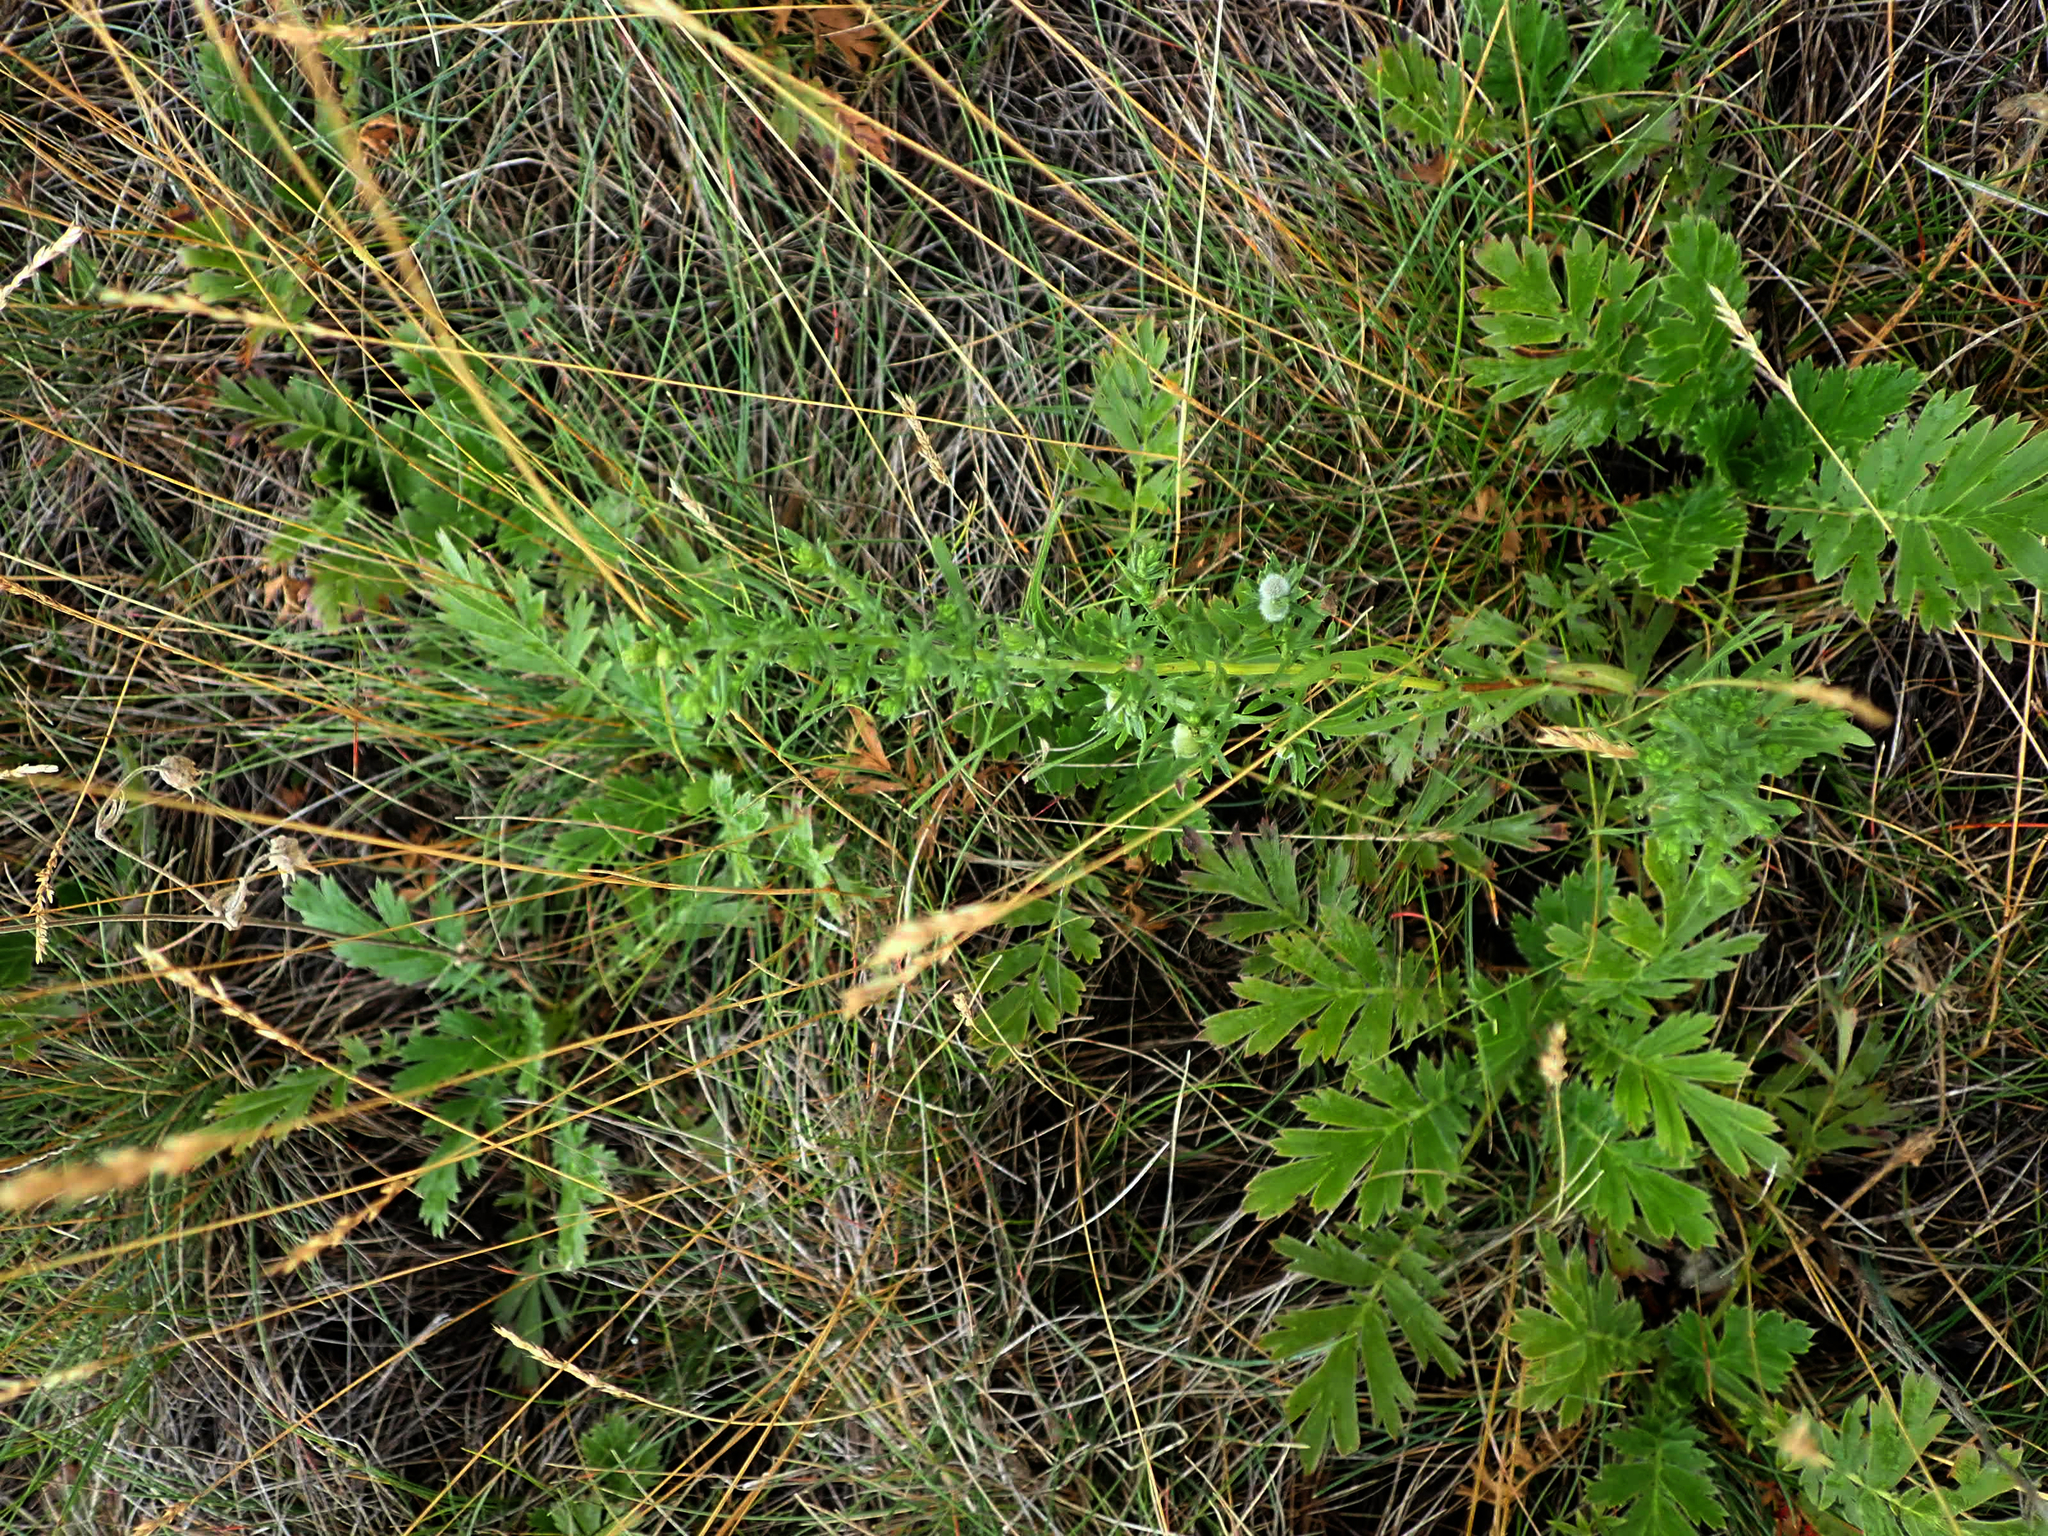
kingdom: Plantae
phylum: Tracheophyta
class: Magnoliopsida
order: Asterales
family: Asteraceae
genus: Symphyotrichum
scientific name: Symphyotrichum ericoides
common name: Heath aster
